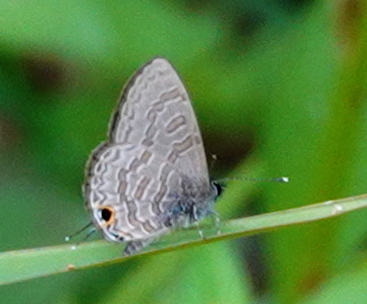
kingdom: Animalia
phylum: Arthropoda
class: Insecta
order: Lepidoptera
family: Lycaenidae
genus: Prosotas
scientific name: Prosotas nora
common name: Common line blue
